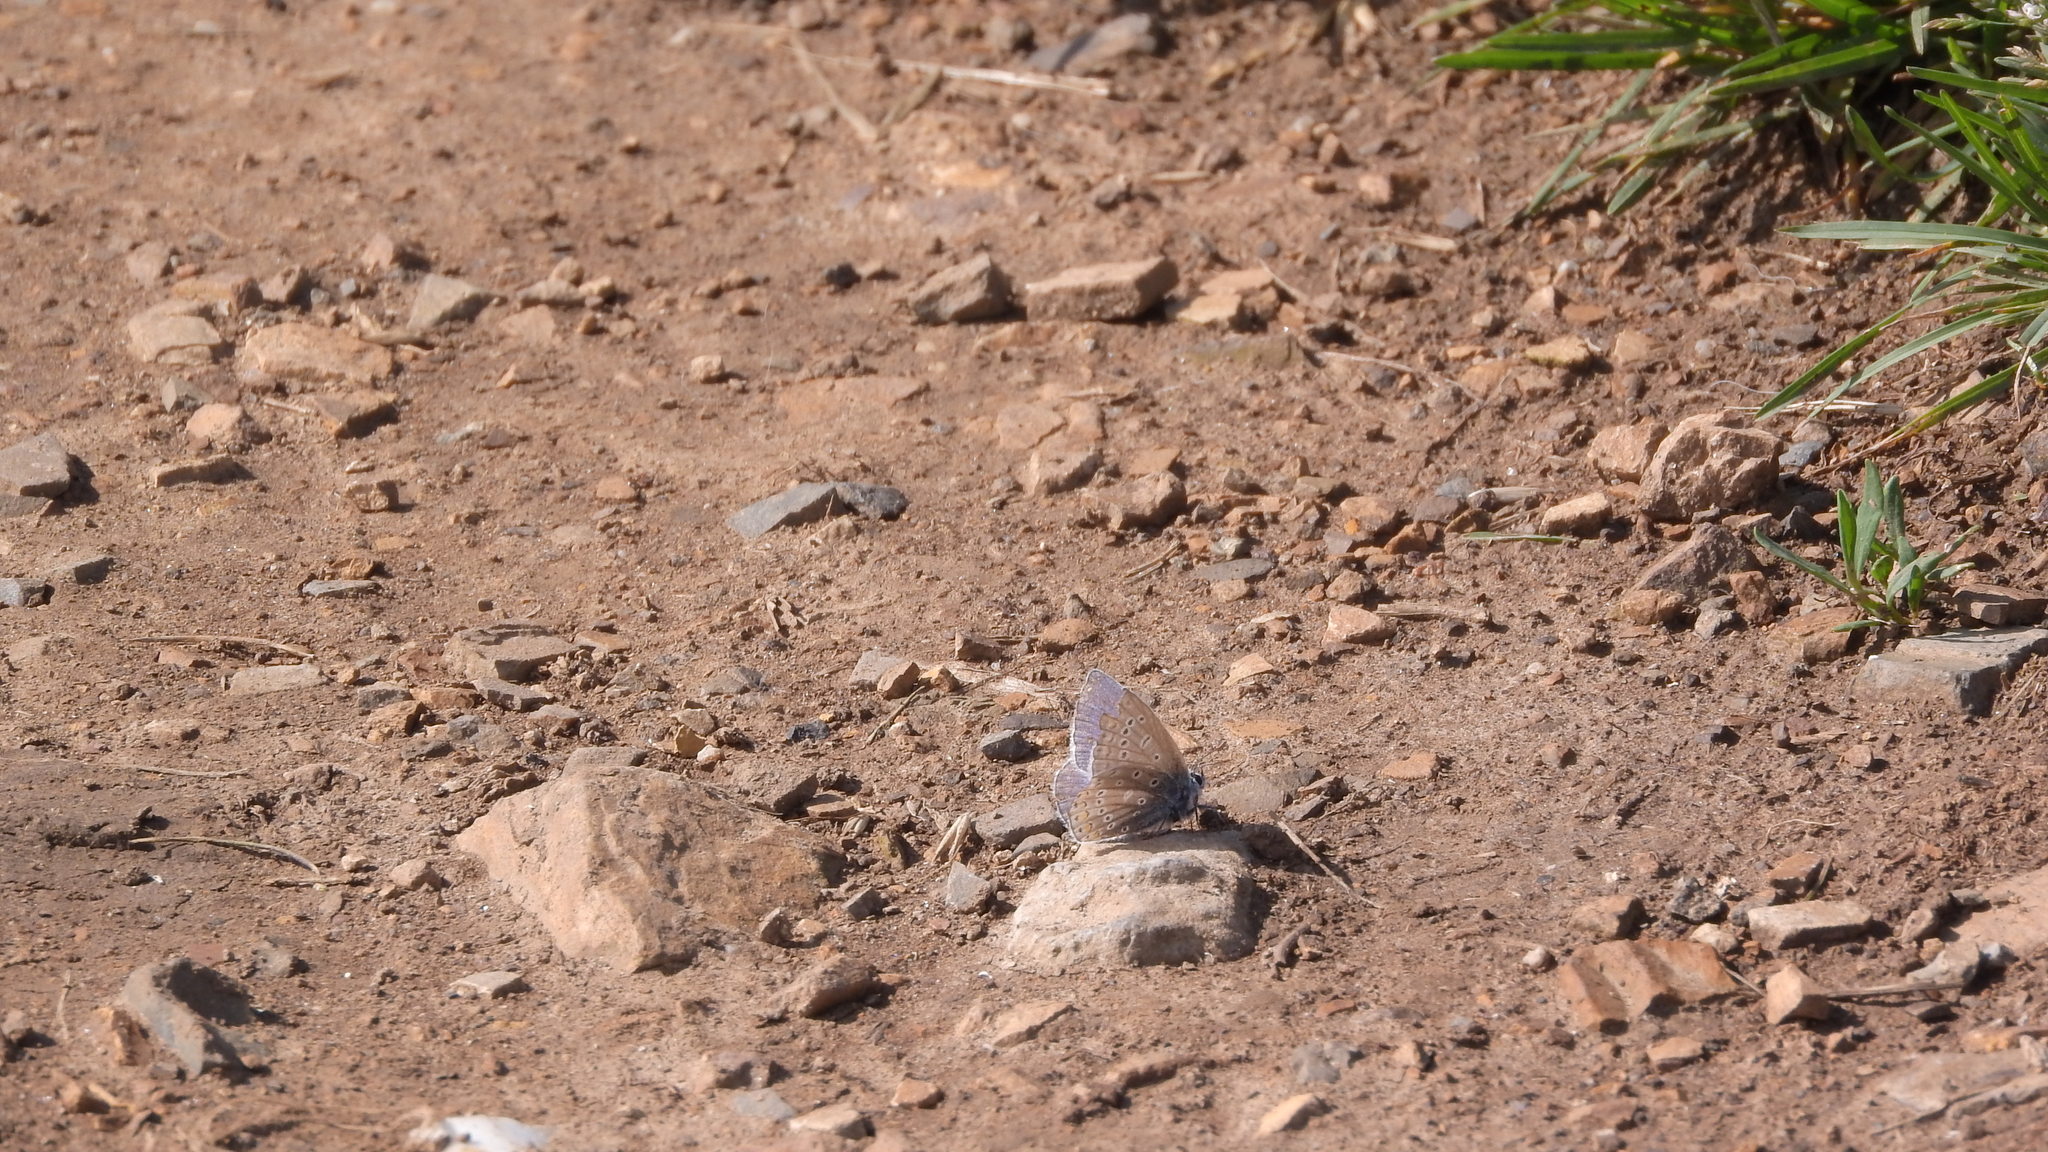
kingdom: Animalia
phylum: Arthropoda
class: Insecta
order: Lepidoptera
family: Lycaenidae
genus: Polyommatus
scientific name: Polyommatus icarus
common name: Common blue
